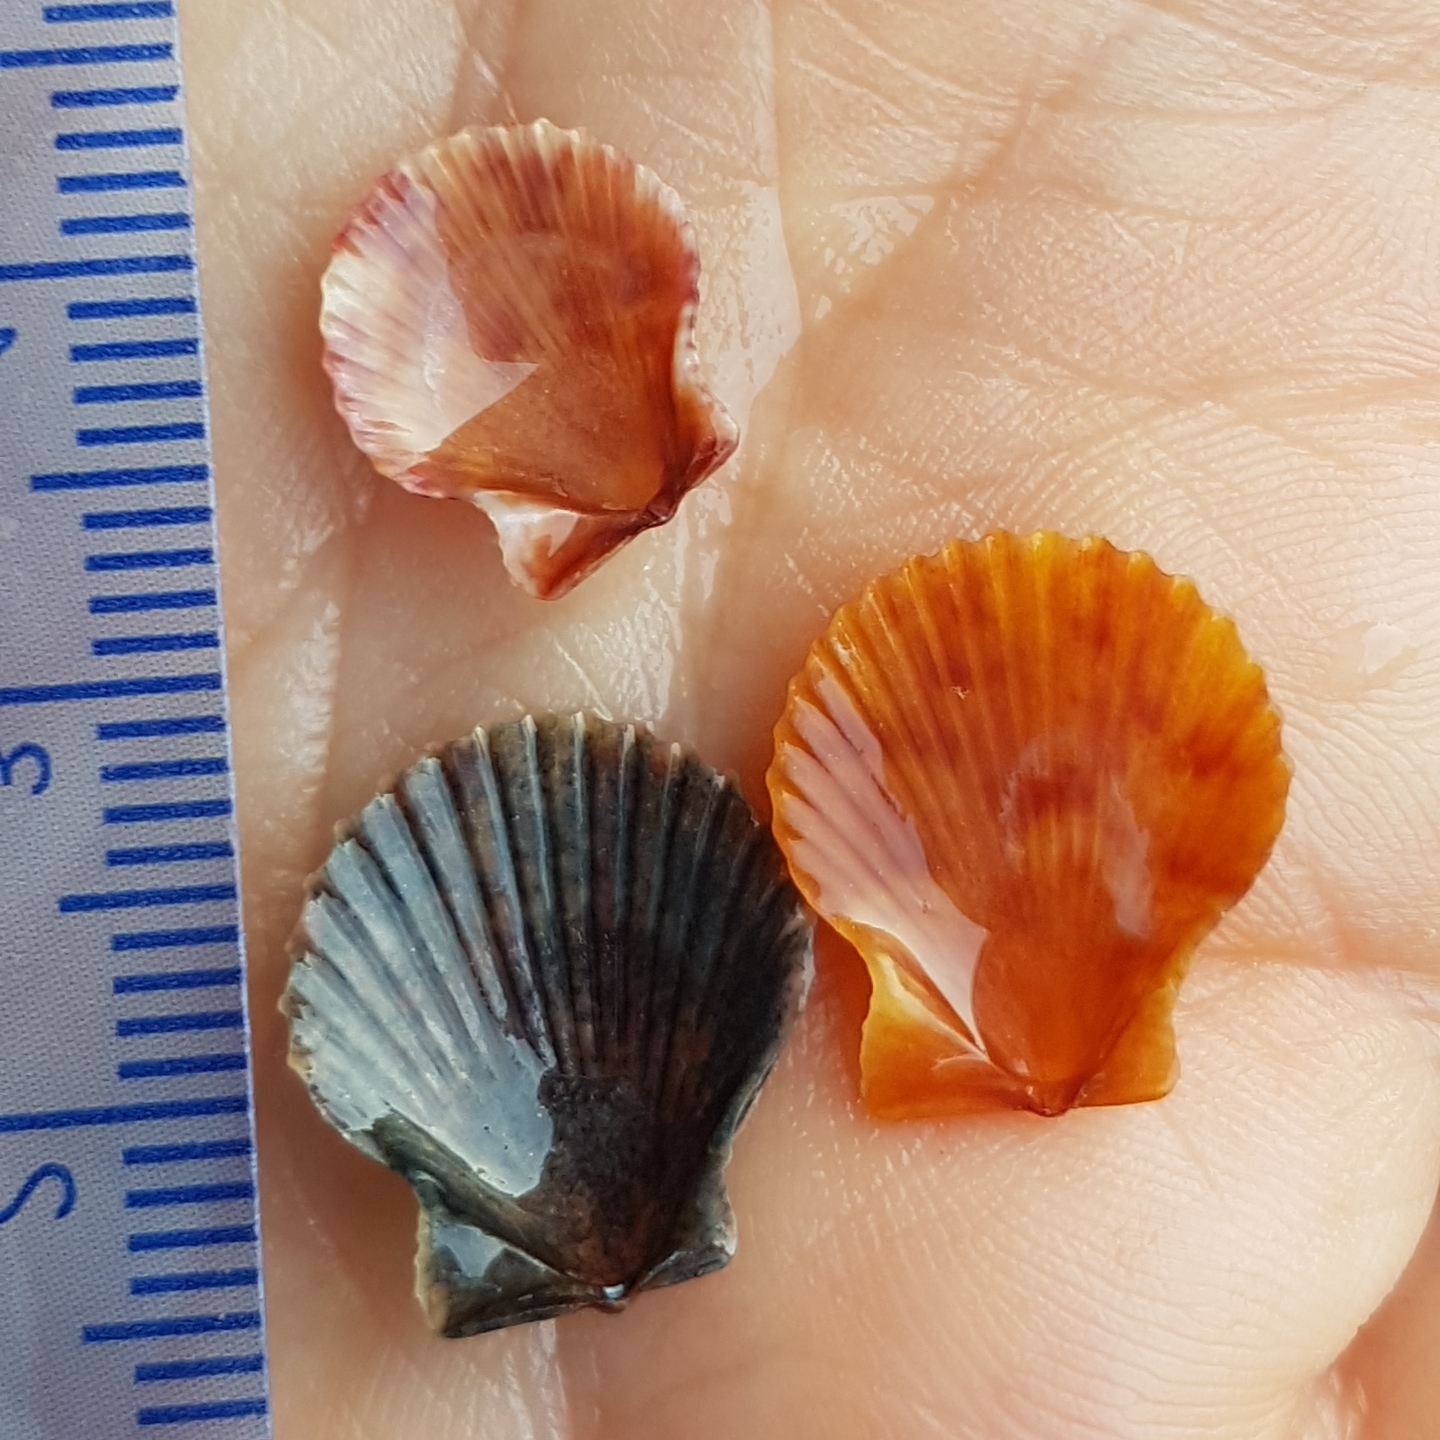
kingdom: Animalia
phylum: Mollusca
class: Bivalvia
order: Pectinida
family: Pectinidae
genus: Aequipecten
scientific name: Aequipecten opercularis
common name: Queen scallop
